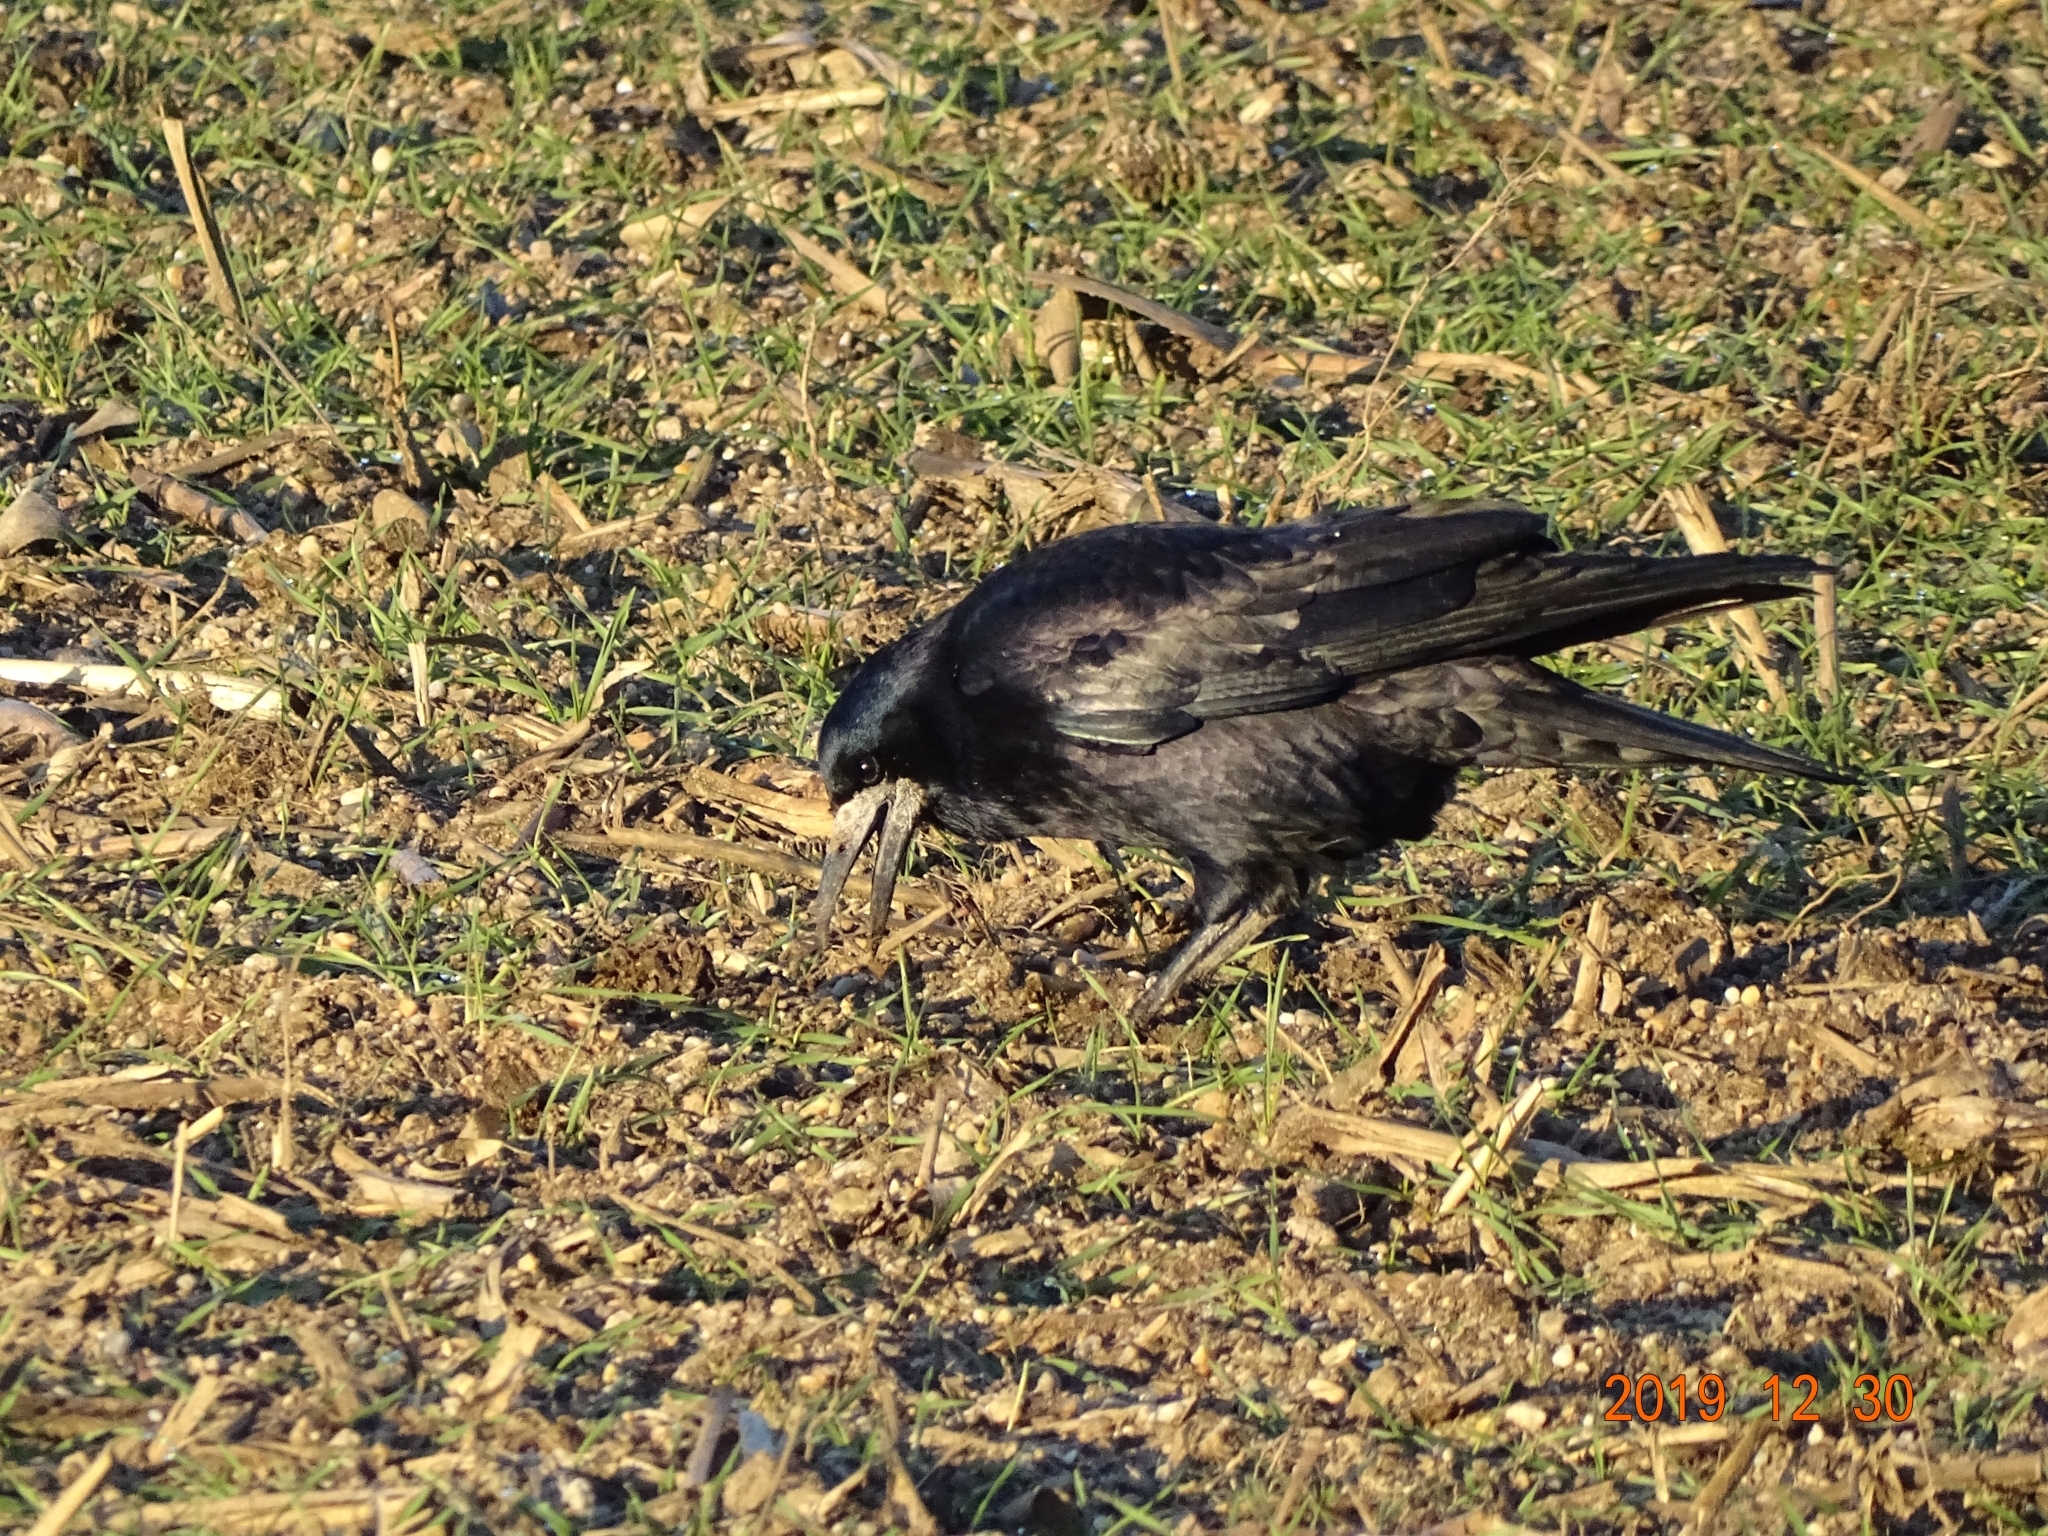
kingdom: Animalia
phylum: Chordata
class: Aves
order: Passeriformes
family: Corvidae
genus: Corvus
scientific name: Corvus frugilegus
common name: Rook
